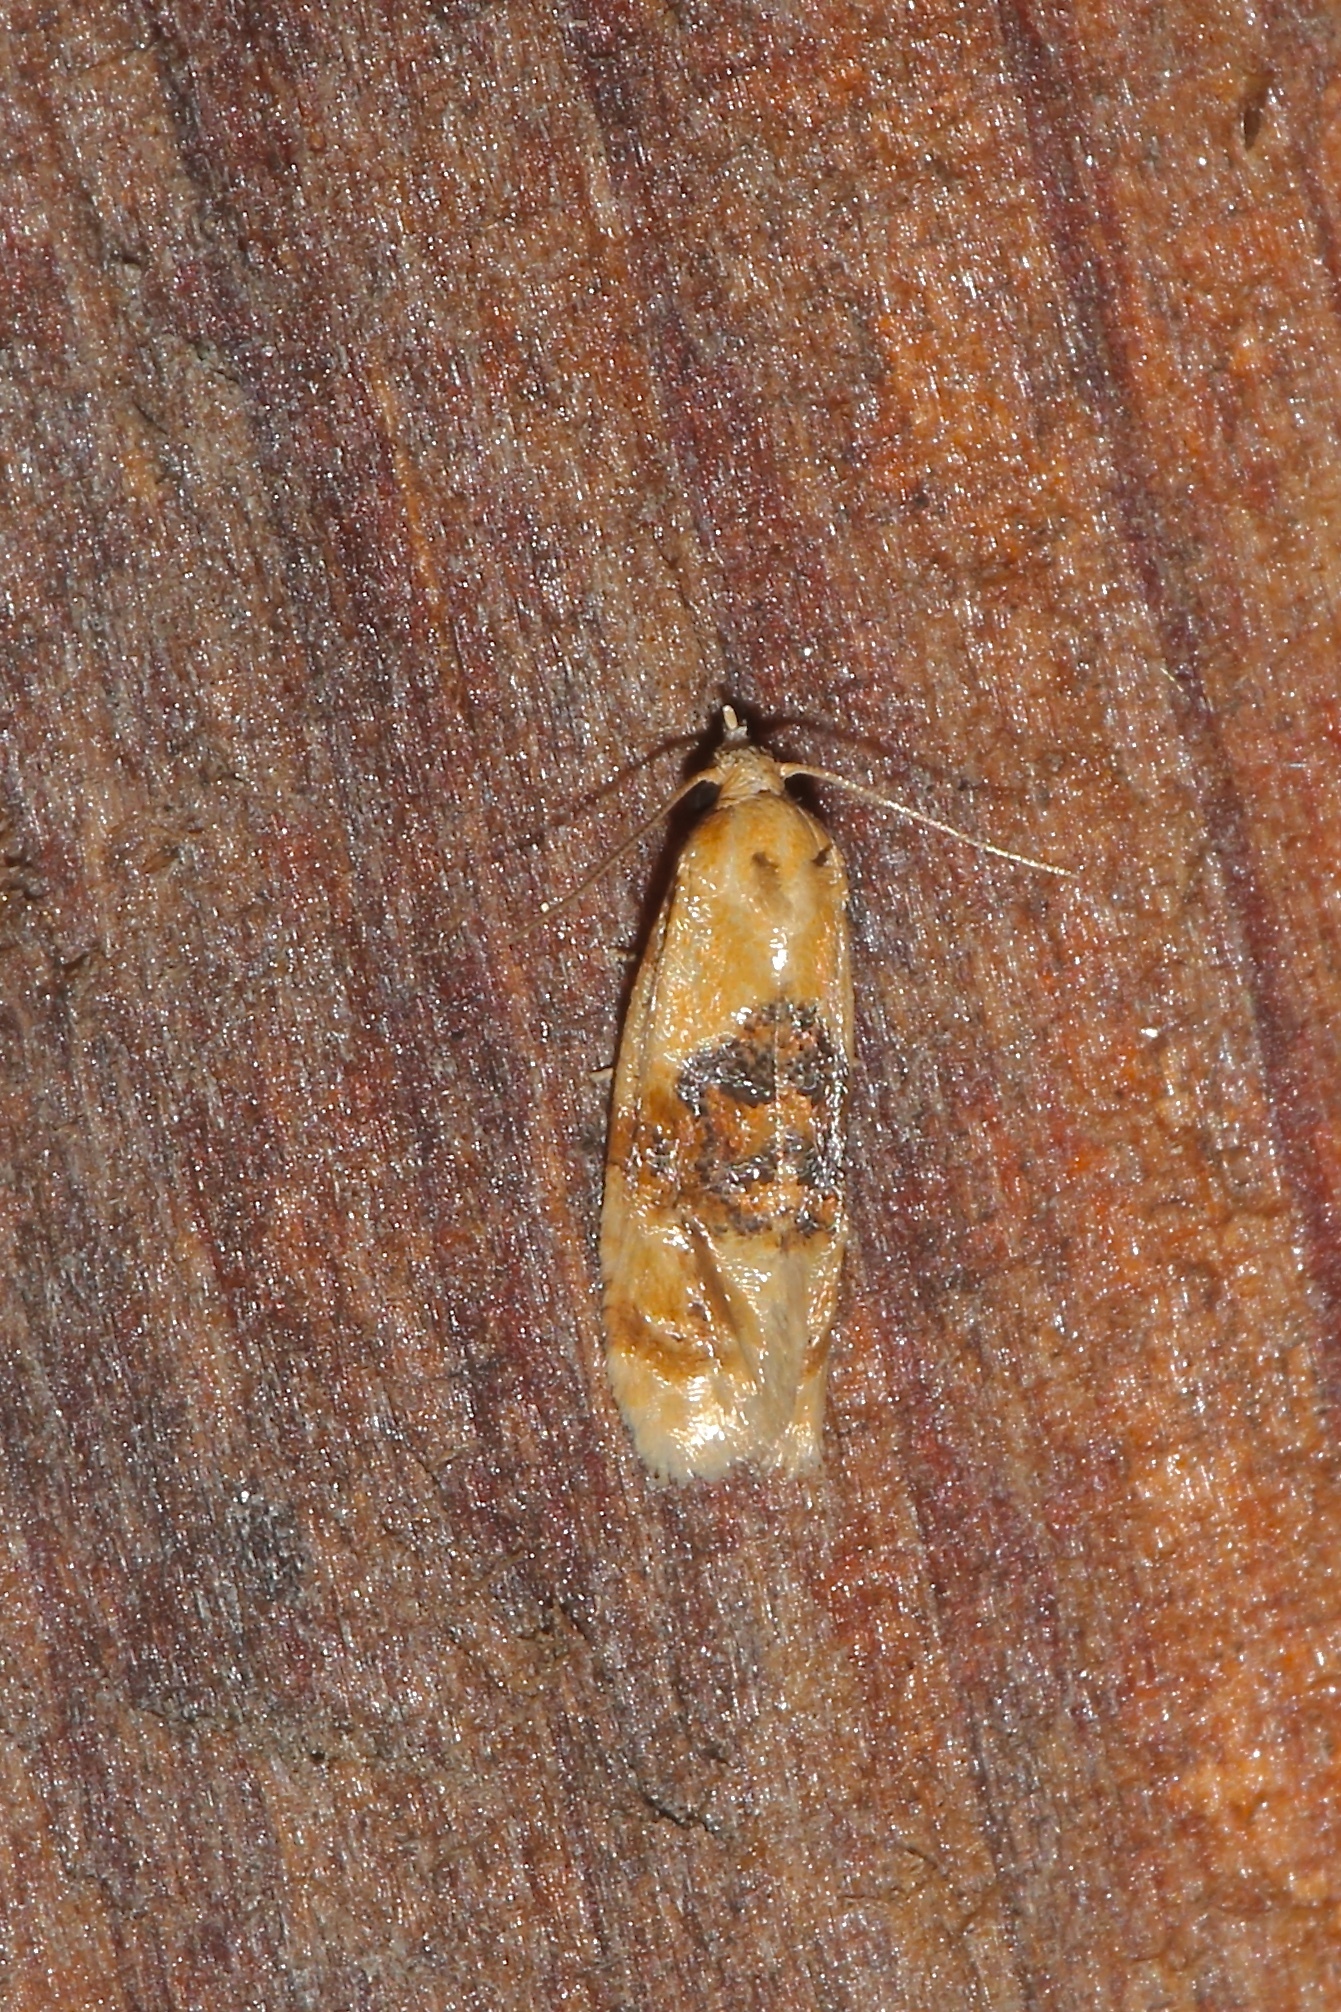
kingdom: Animalia
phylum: Arthropoda
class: Insecta
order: Lepidoptera
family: Tortricidae
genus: Cochylis
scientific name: Cochylis Cochylichroa hospes
